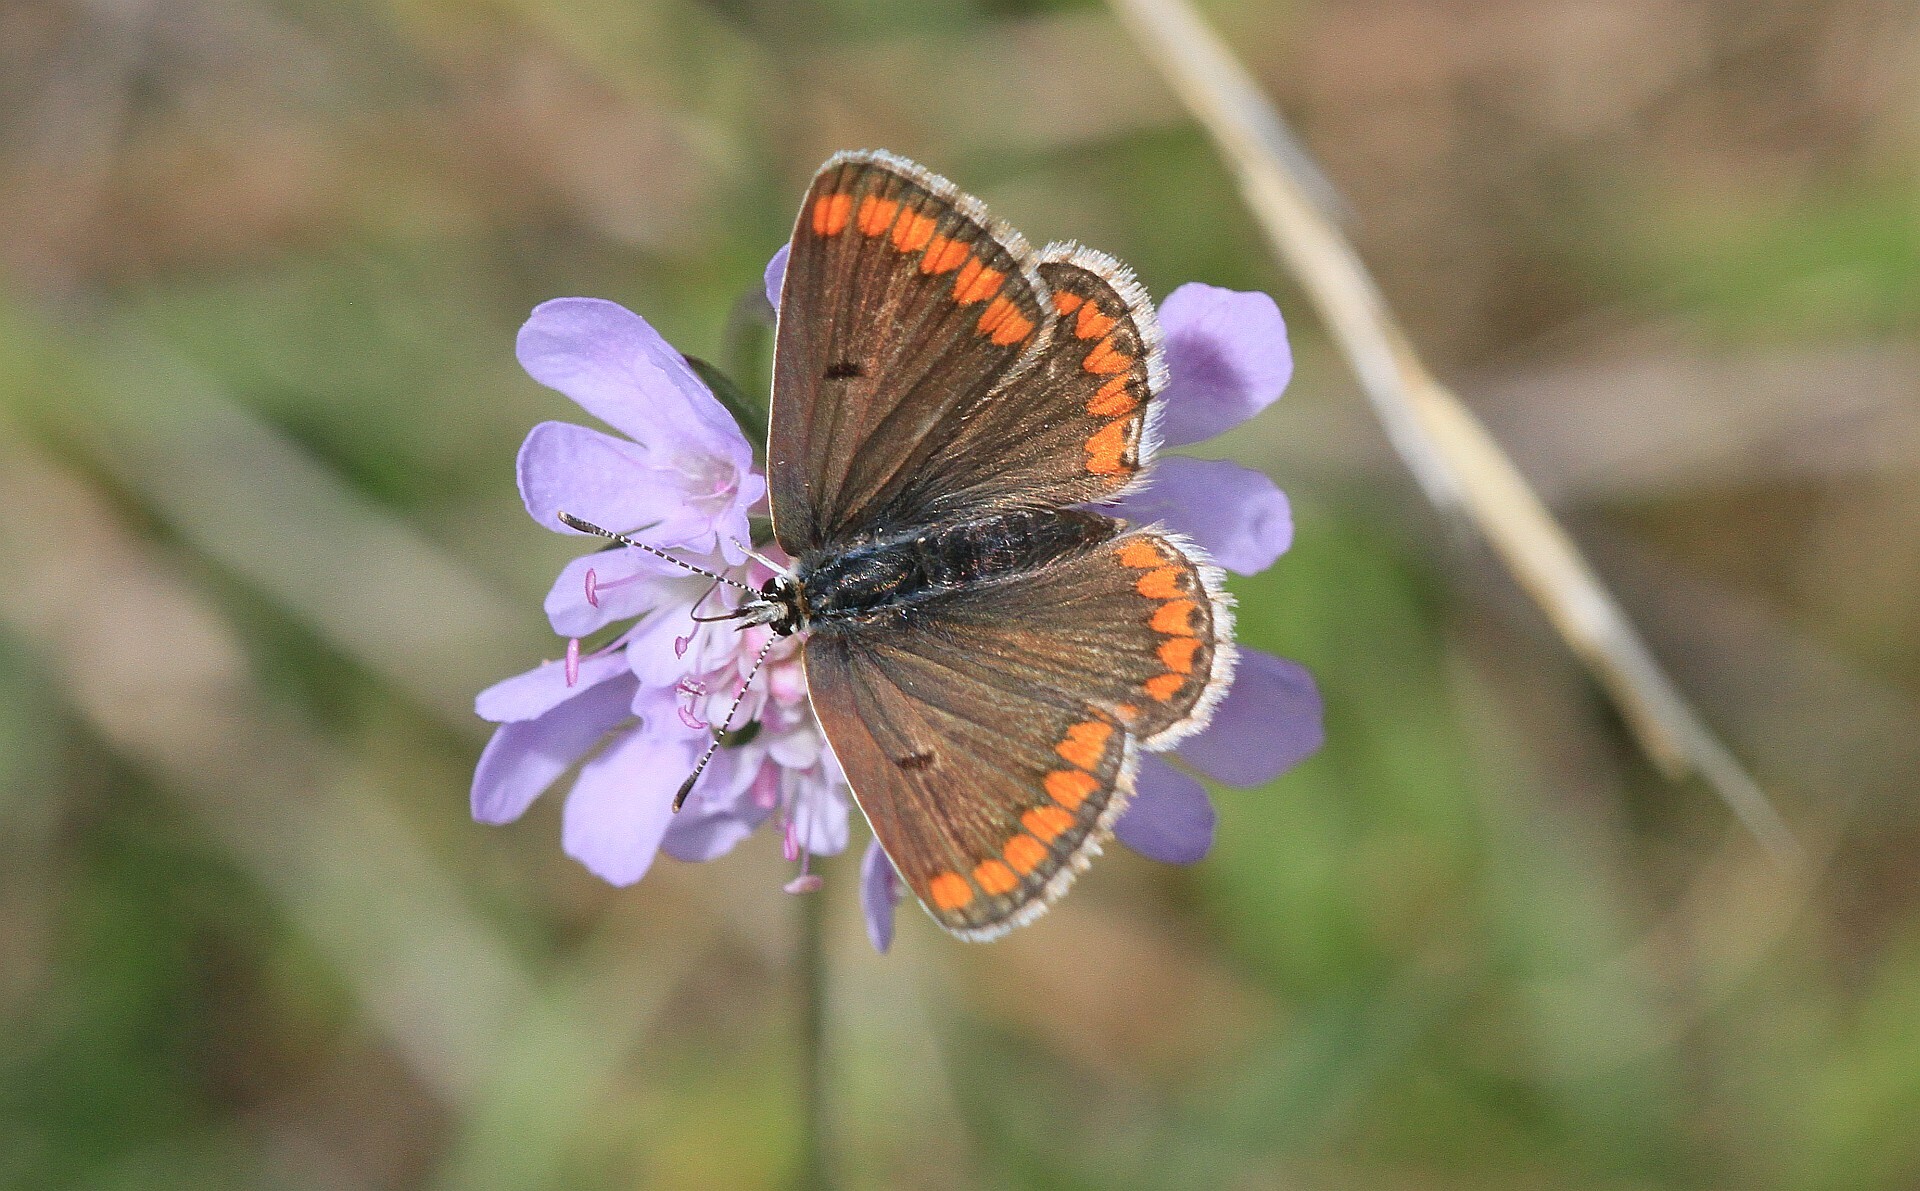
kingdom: Animalia
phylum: Arthropoda
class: Insecta
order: Lepidoptera
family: Lycaenidae
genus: Aricia
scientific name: Aricia agestis
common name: Brown argus
